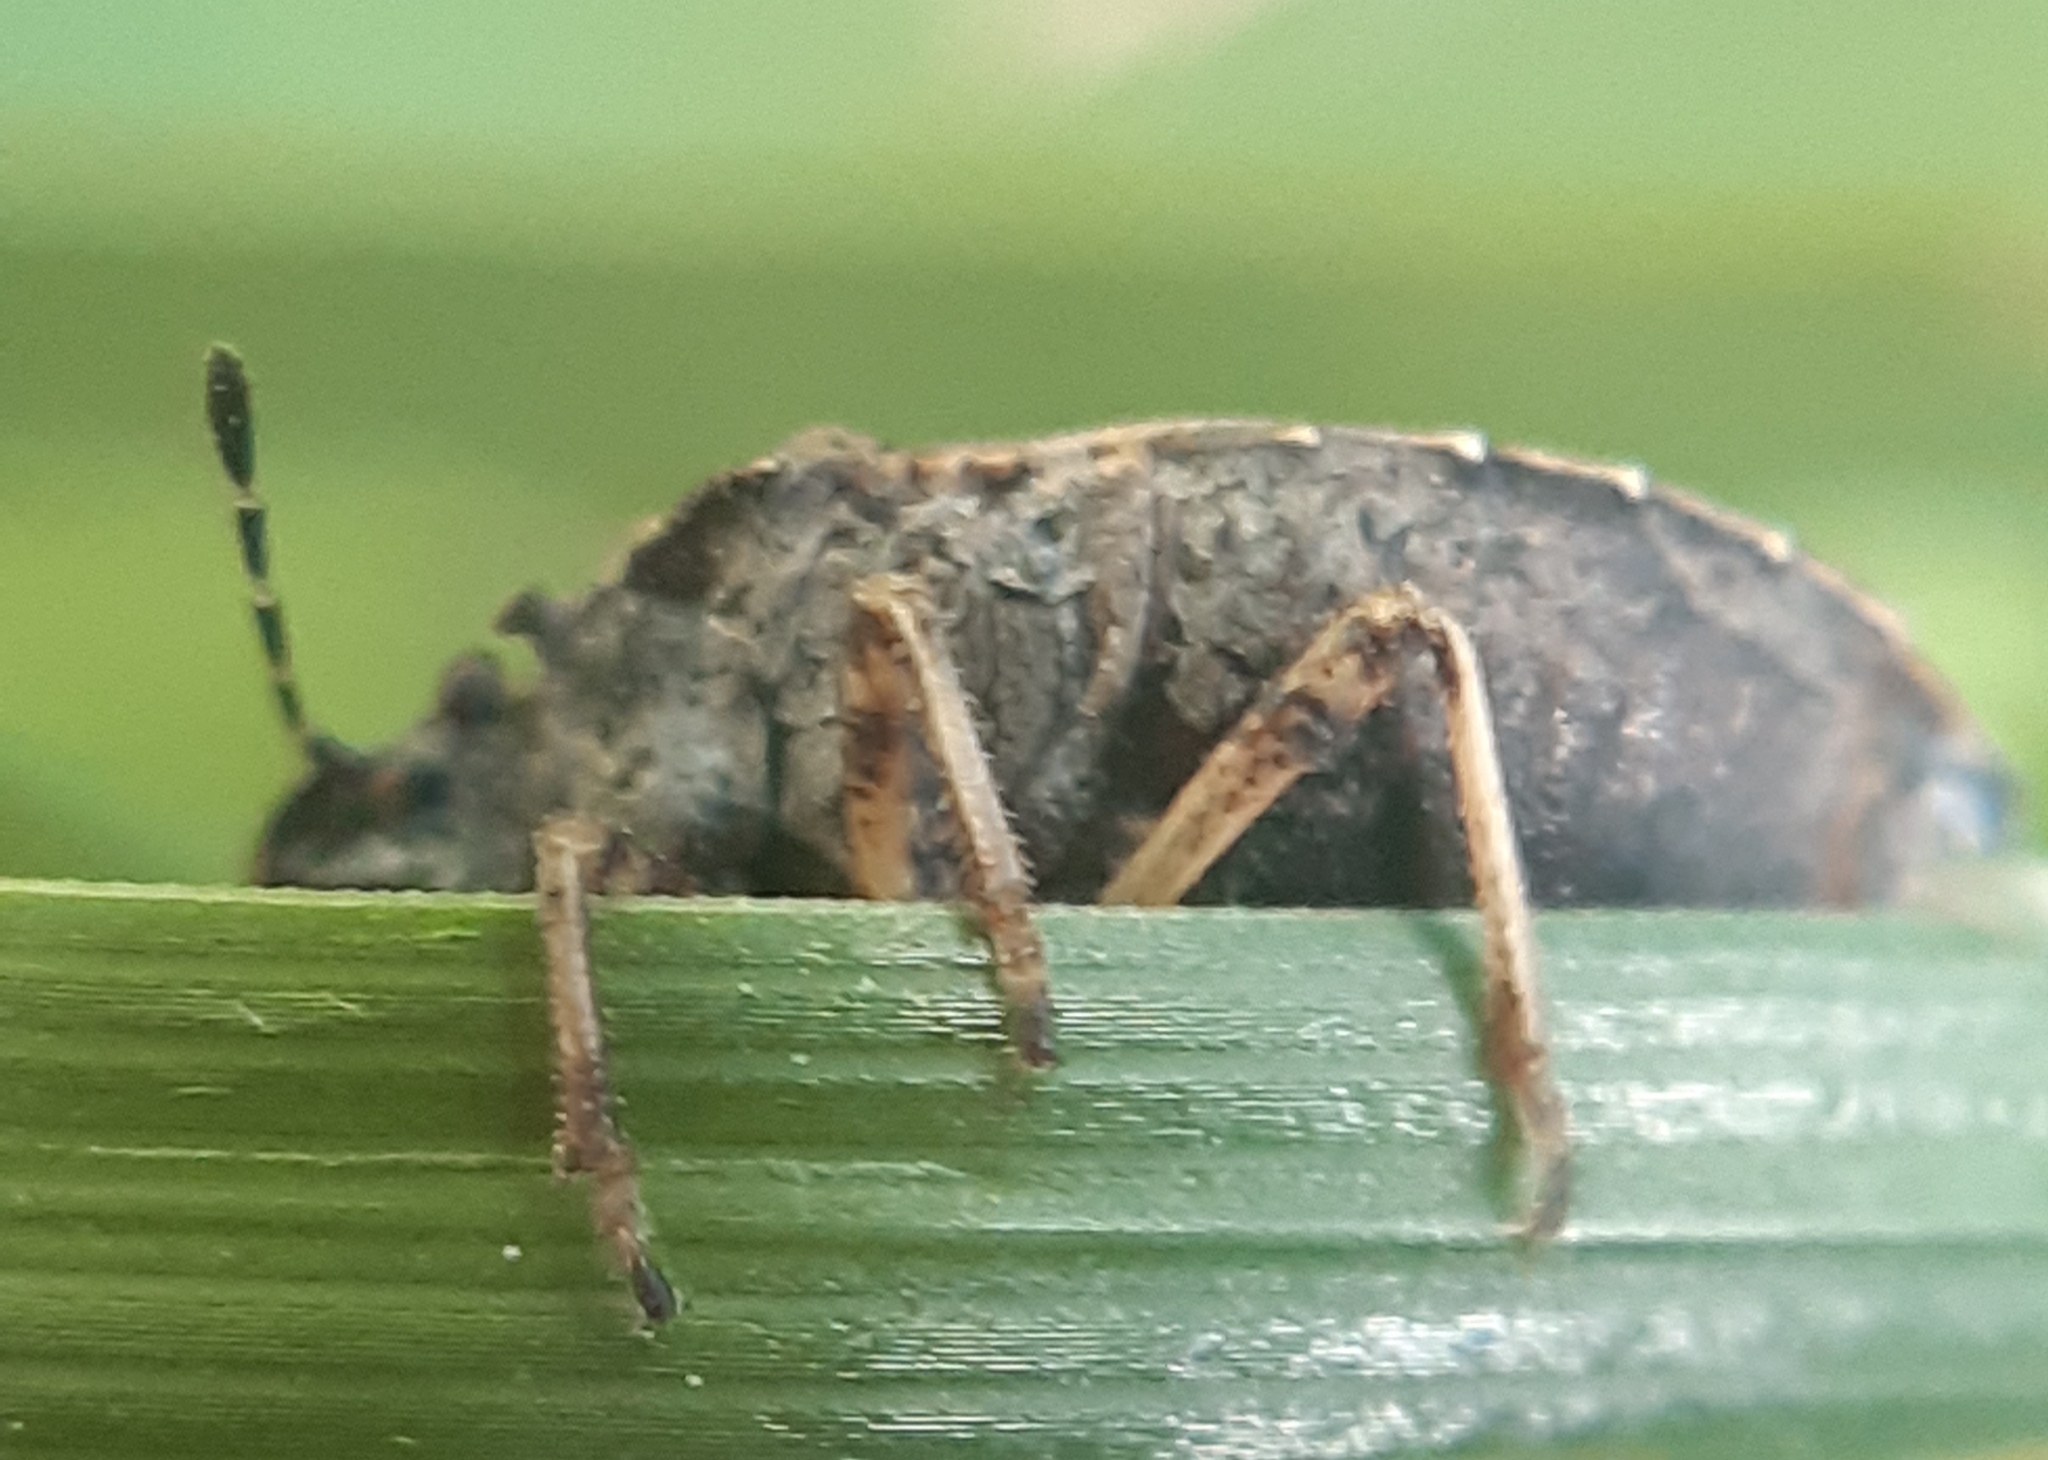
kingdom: Animalia
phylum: Arthropoda
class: Insecta
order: Hemiptera
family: Pentatomidae
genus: Podops
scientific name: Podops inunctus
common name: Turtle bug
